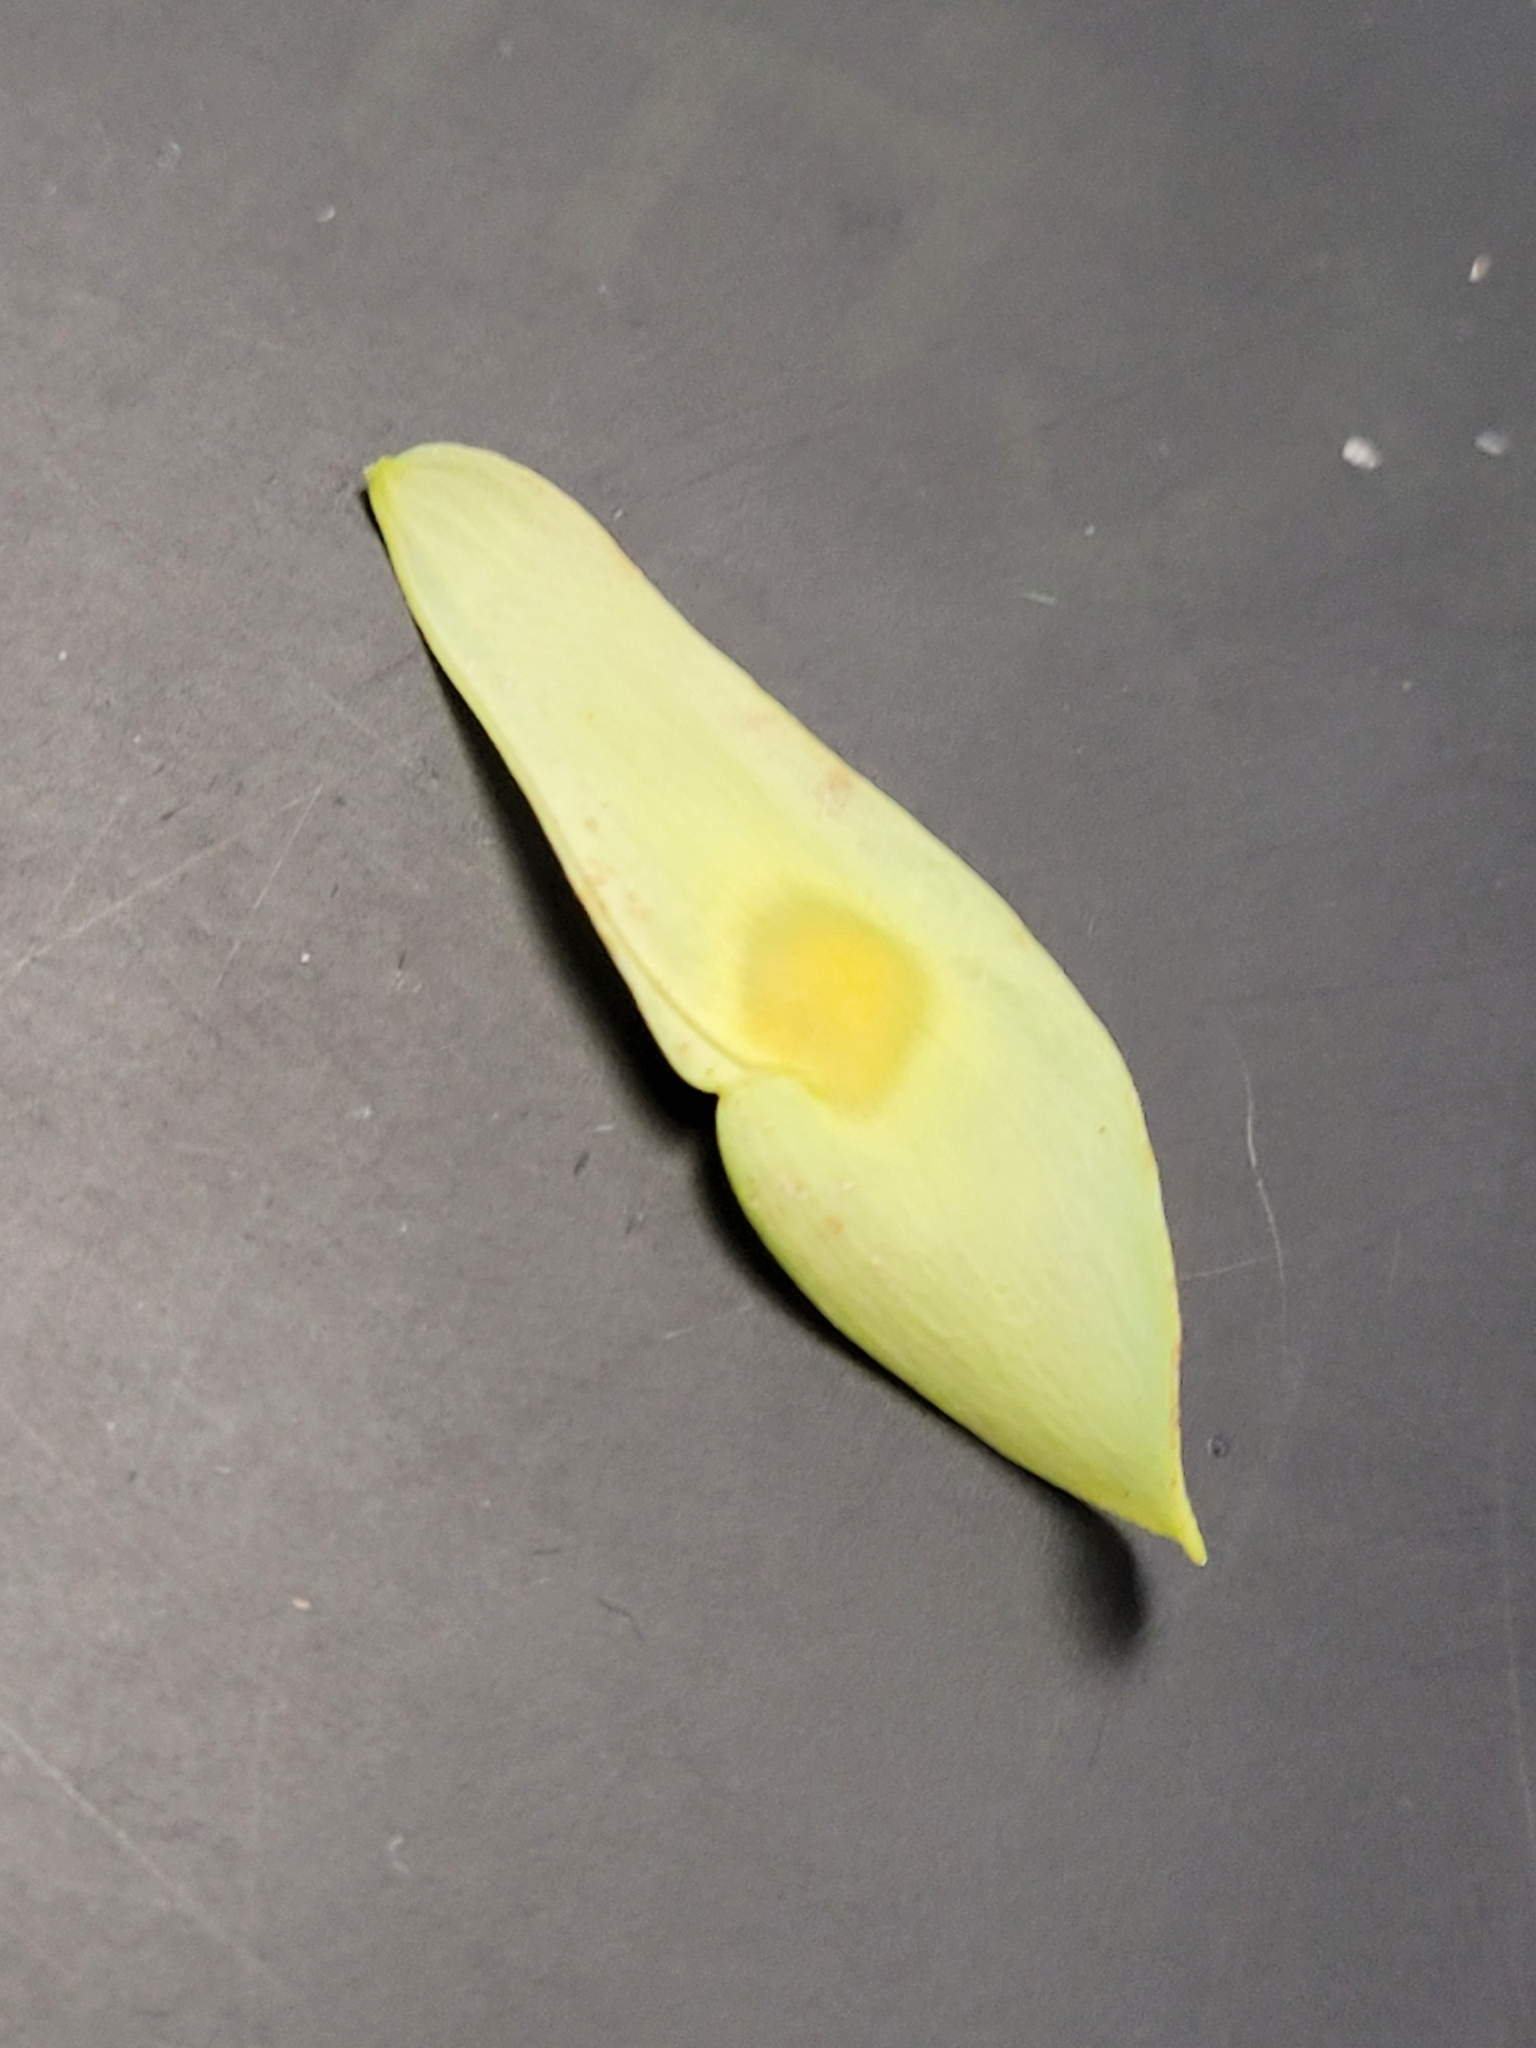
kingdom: Plantae
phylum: Tracheophyta
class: Magnoliopsida
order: Sapindales
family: Simaroubaceae
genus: Ailanthus
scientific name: Ailanthus altissima
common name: Tree-of-heaven
